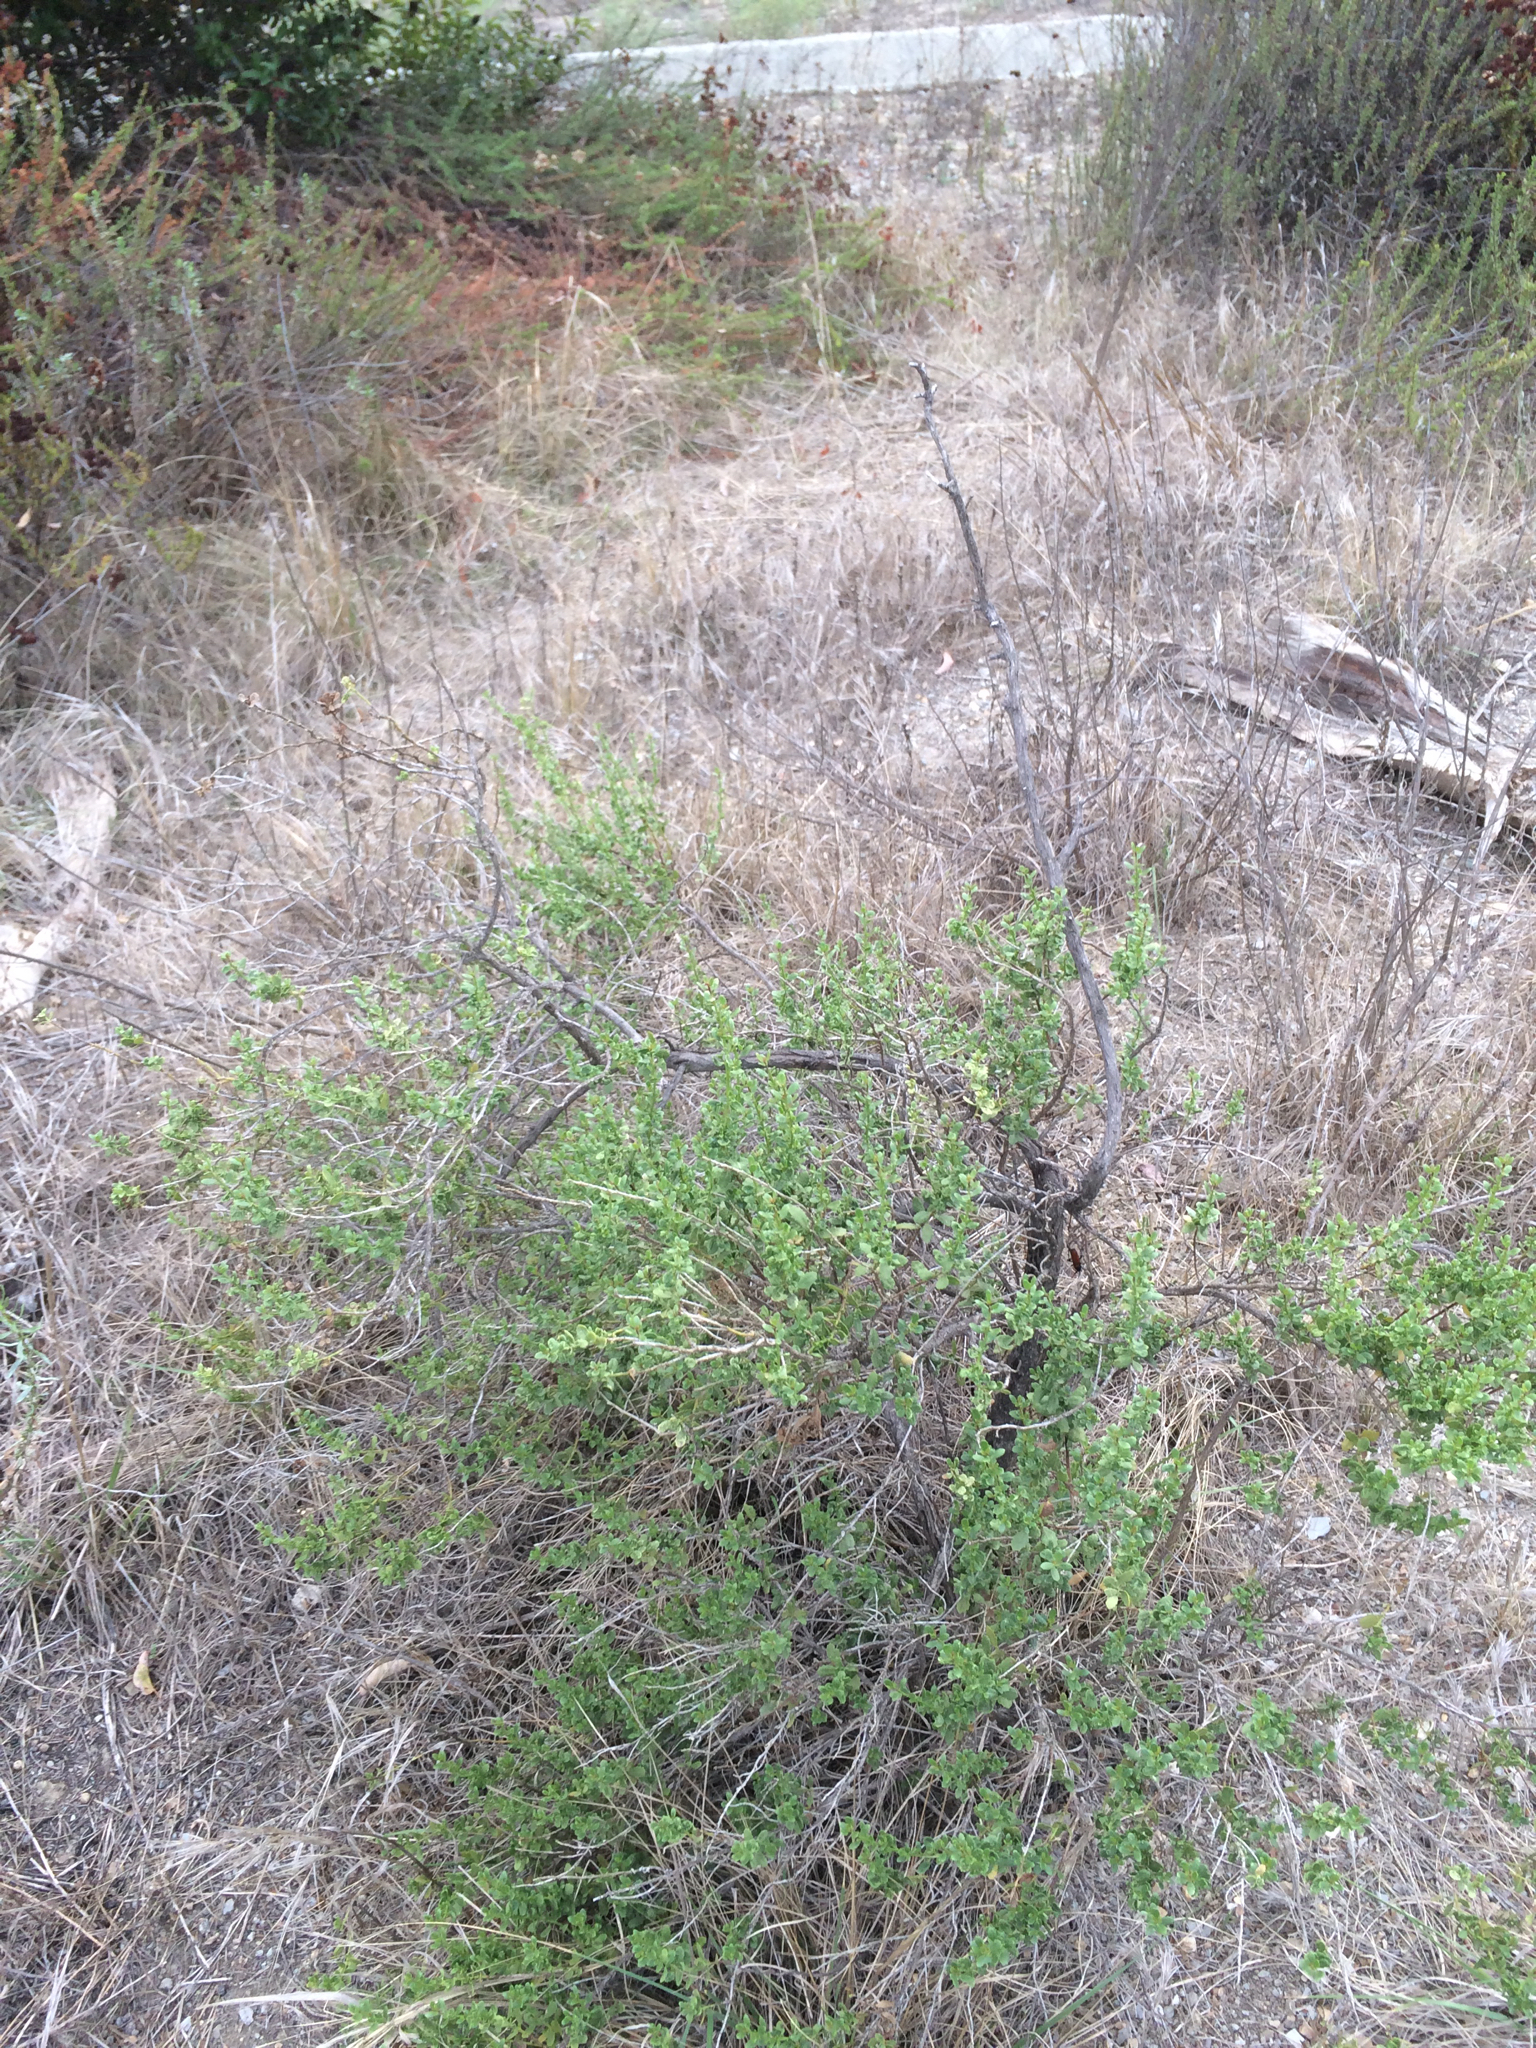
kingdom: Plantae
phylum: Tracheophyta
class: Magnoliopsida
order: Asterales
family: Asteraceae
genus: Baccharis
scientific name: Baccharis pilularis
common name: Coyotebrush
